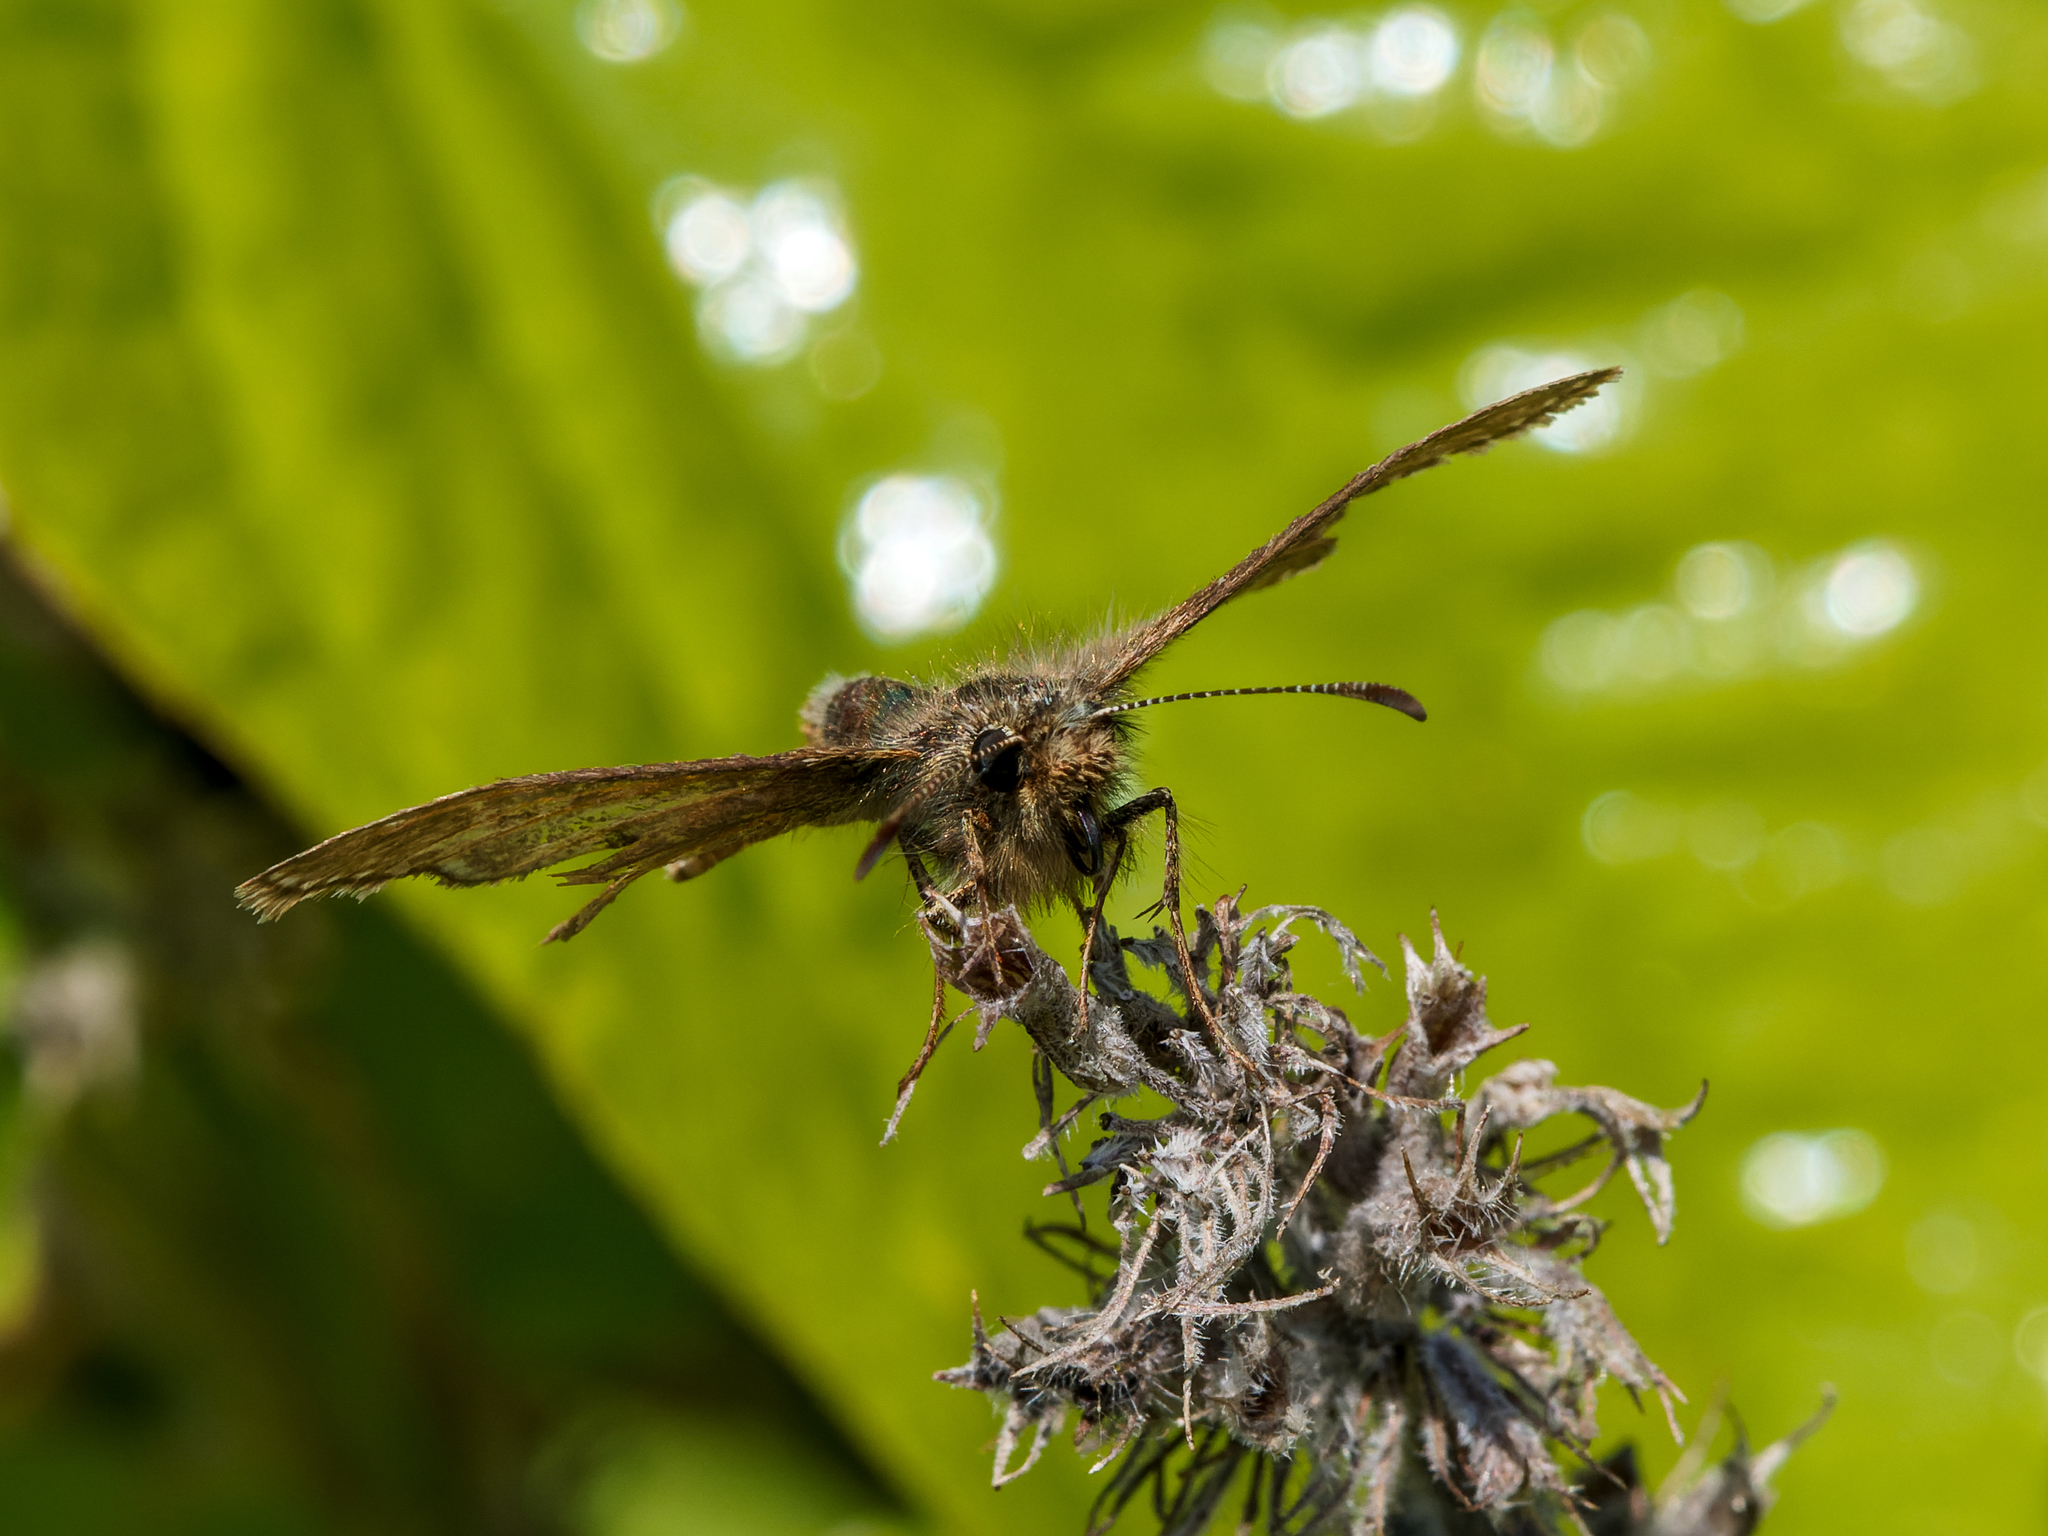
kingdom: Animalia
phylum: Arthropoda
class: Insecta
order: Lepidoptera
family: Hesperiidae
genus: Erynnis
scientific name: Erynnis tages
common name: Dingy skipper
